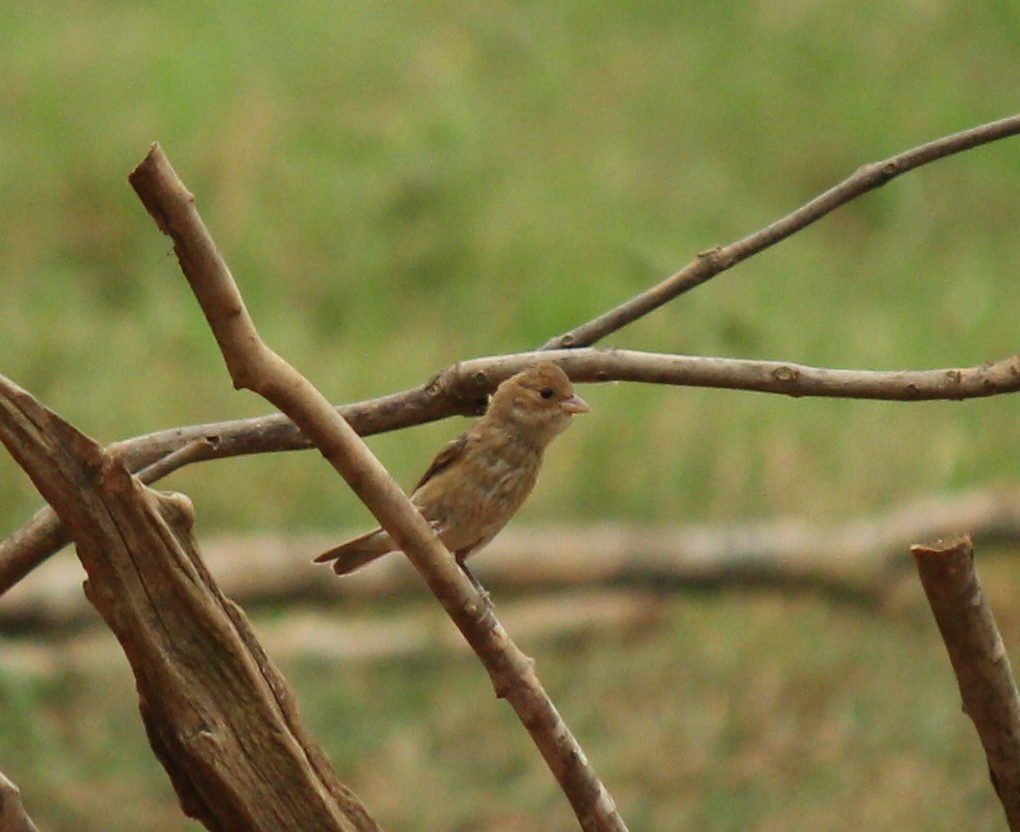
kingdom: Animalia
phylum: Chordata
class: Aves
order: Passeriformes
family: Cardinalidae
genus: Passerina
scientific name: Passerina cyanea
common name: Indigo bunting
